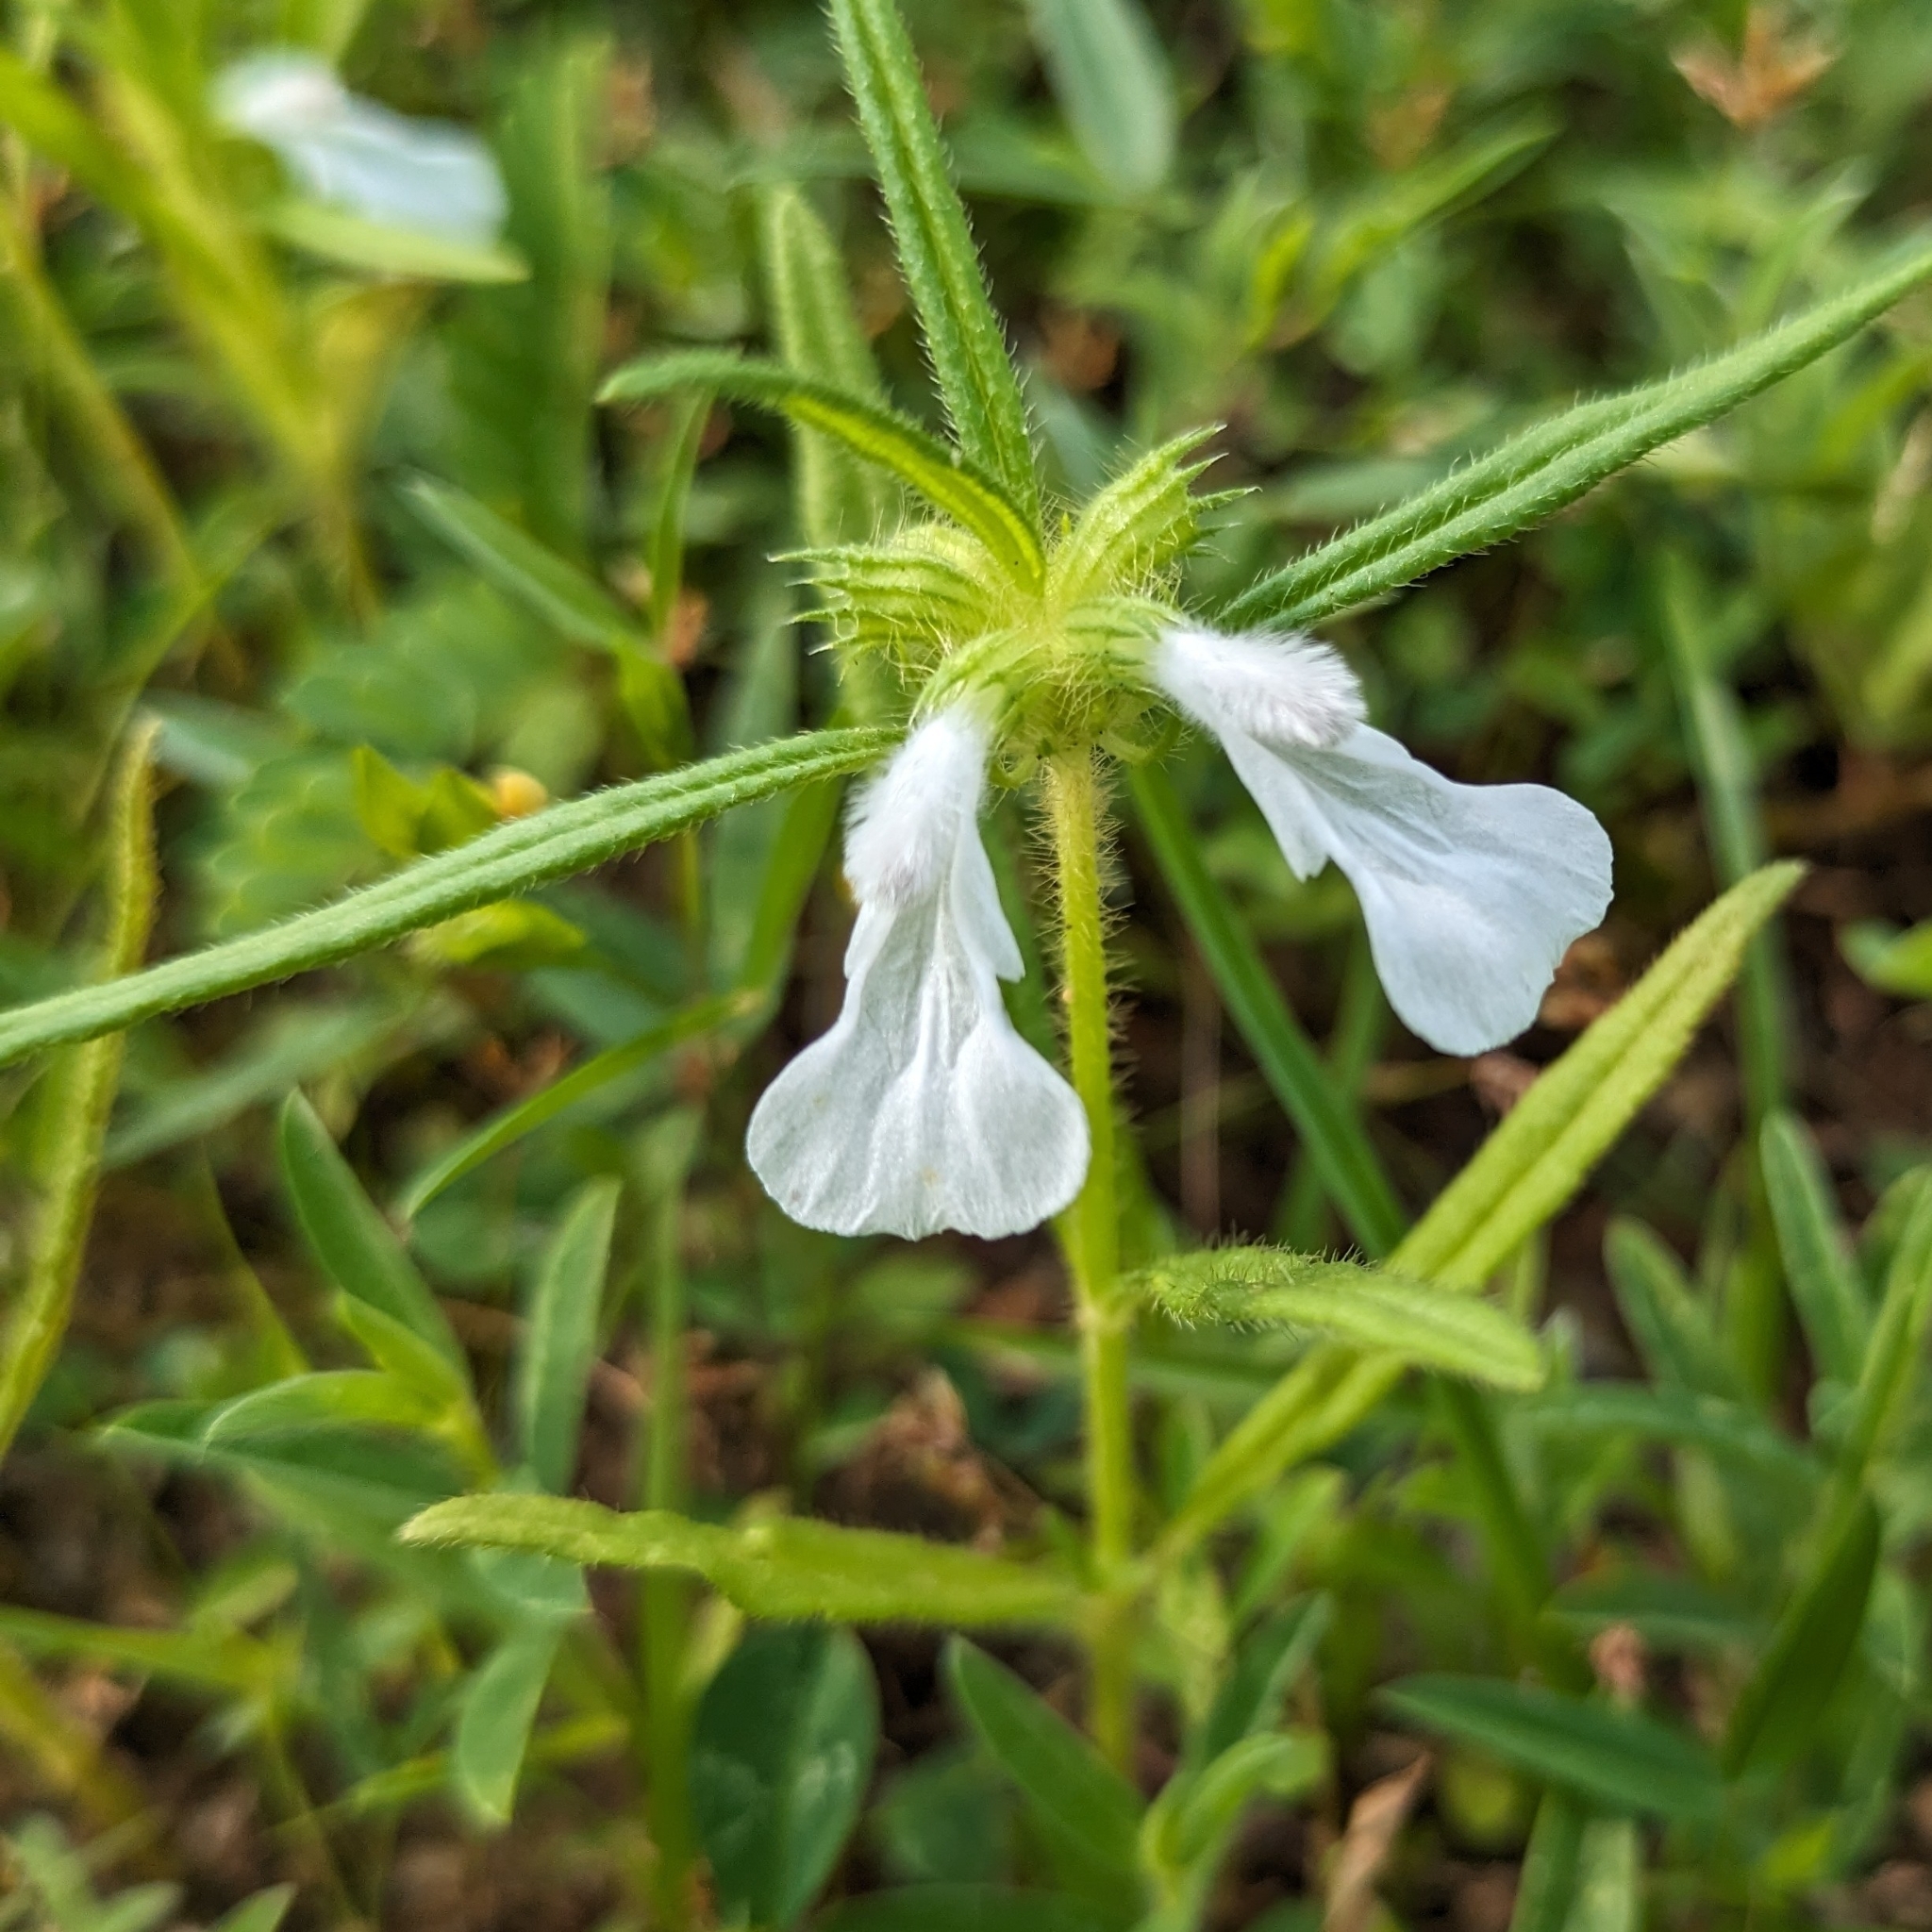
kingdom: Plantae
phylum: Tracheophyta
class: Magnoliopsida
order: Lamiales
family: Lamiaceae
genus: Leucas
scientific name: Leucas aspera
